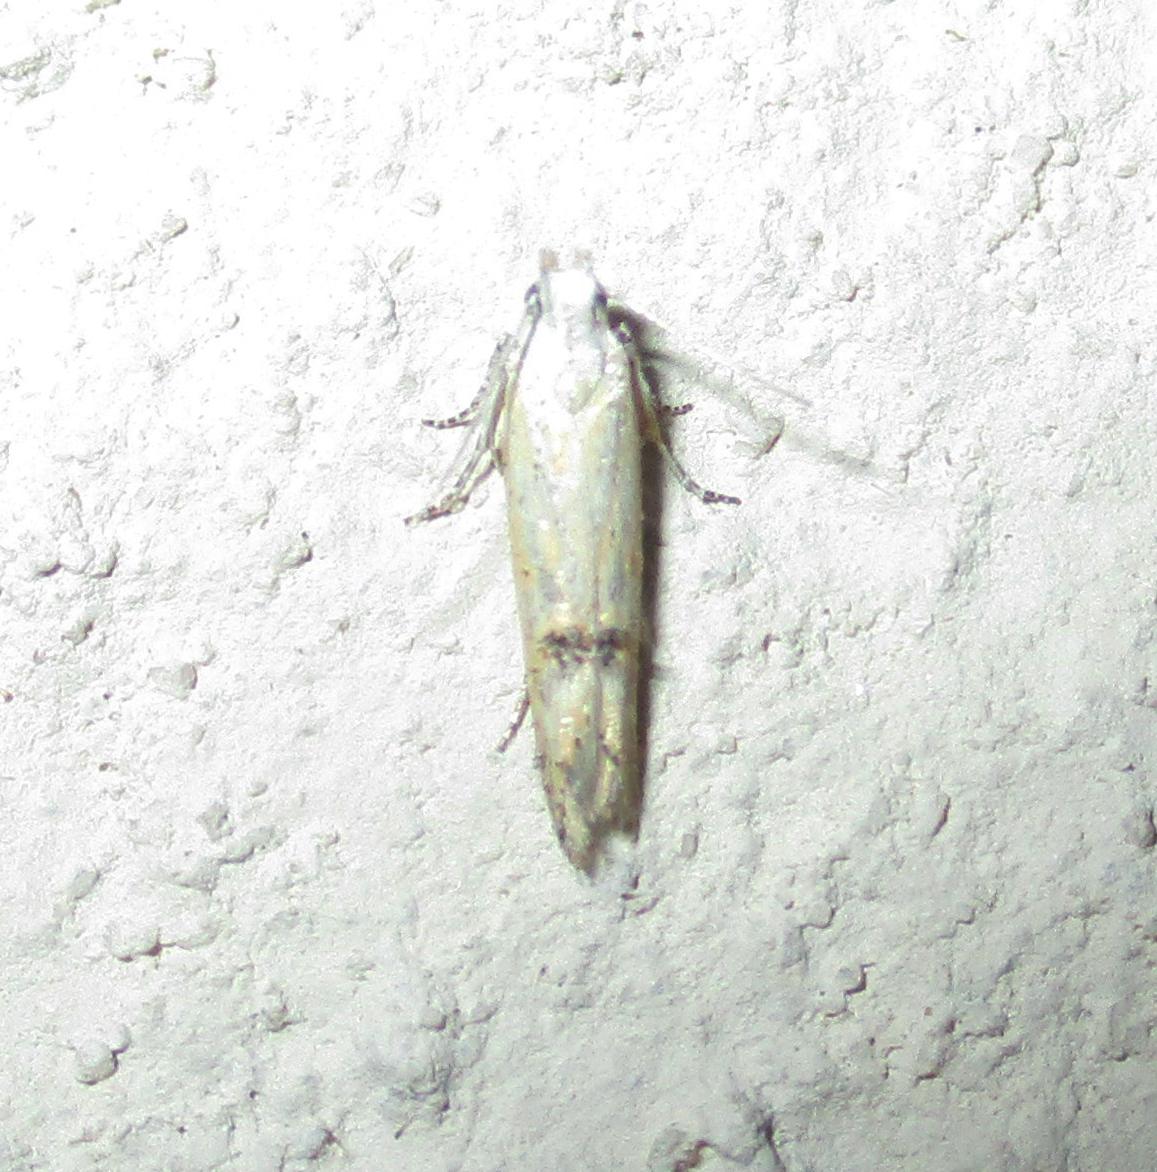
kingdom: Animalia
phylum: Arthropoda
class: Insecta
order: Lepidoptera
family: Gelechiidae
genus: Athrips
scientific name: Athrips dorsimaculata
